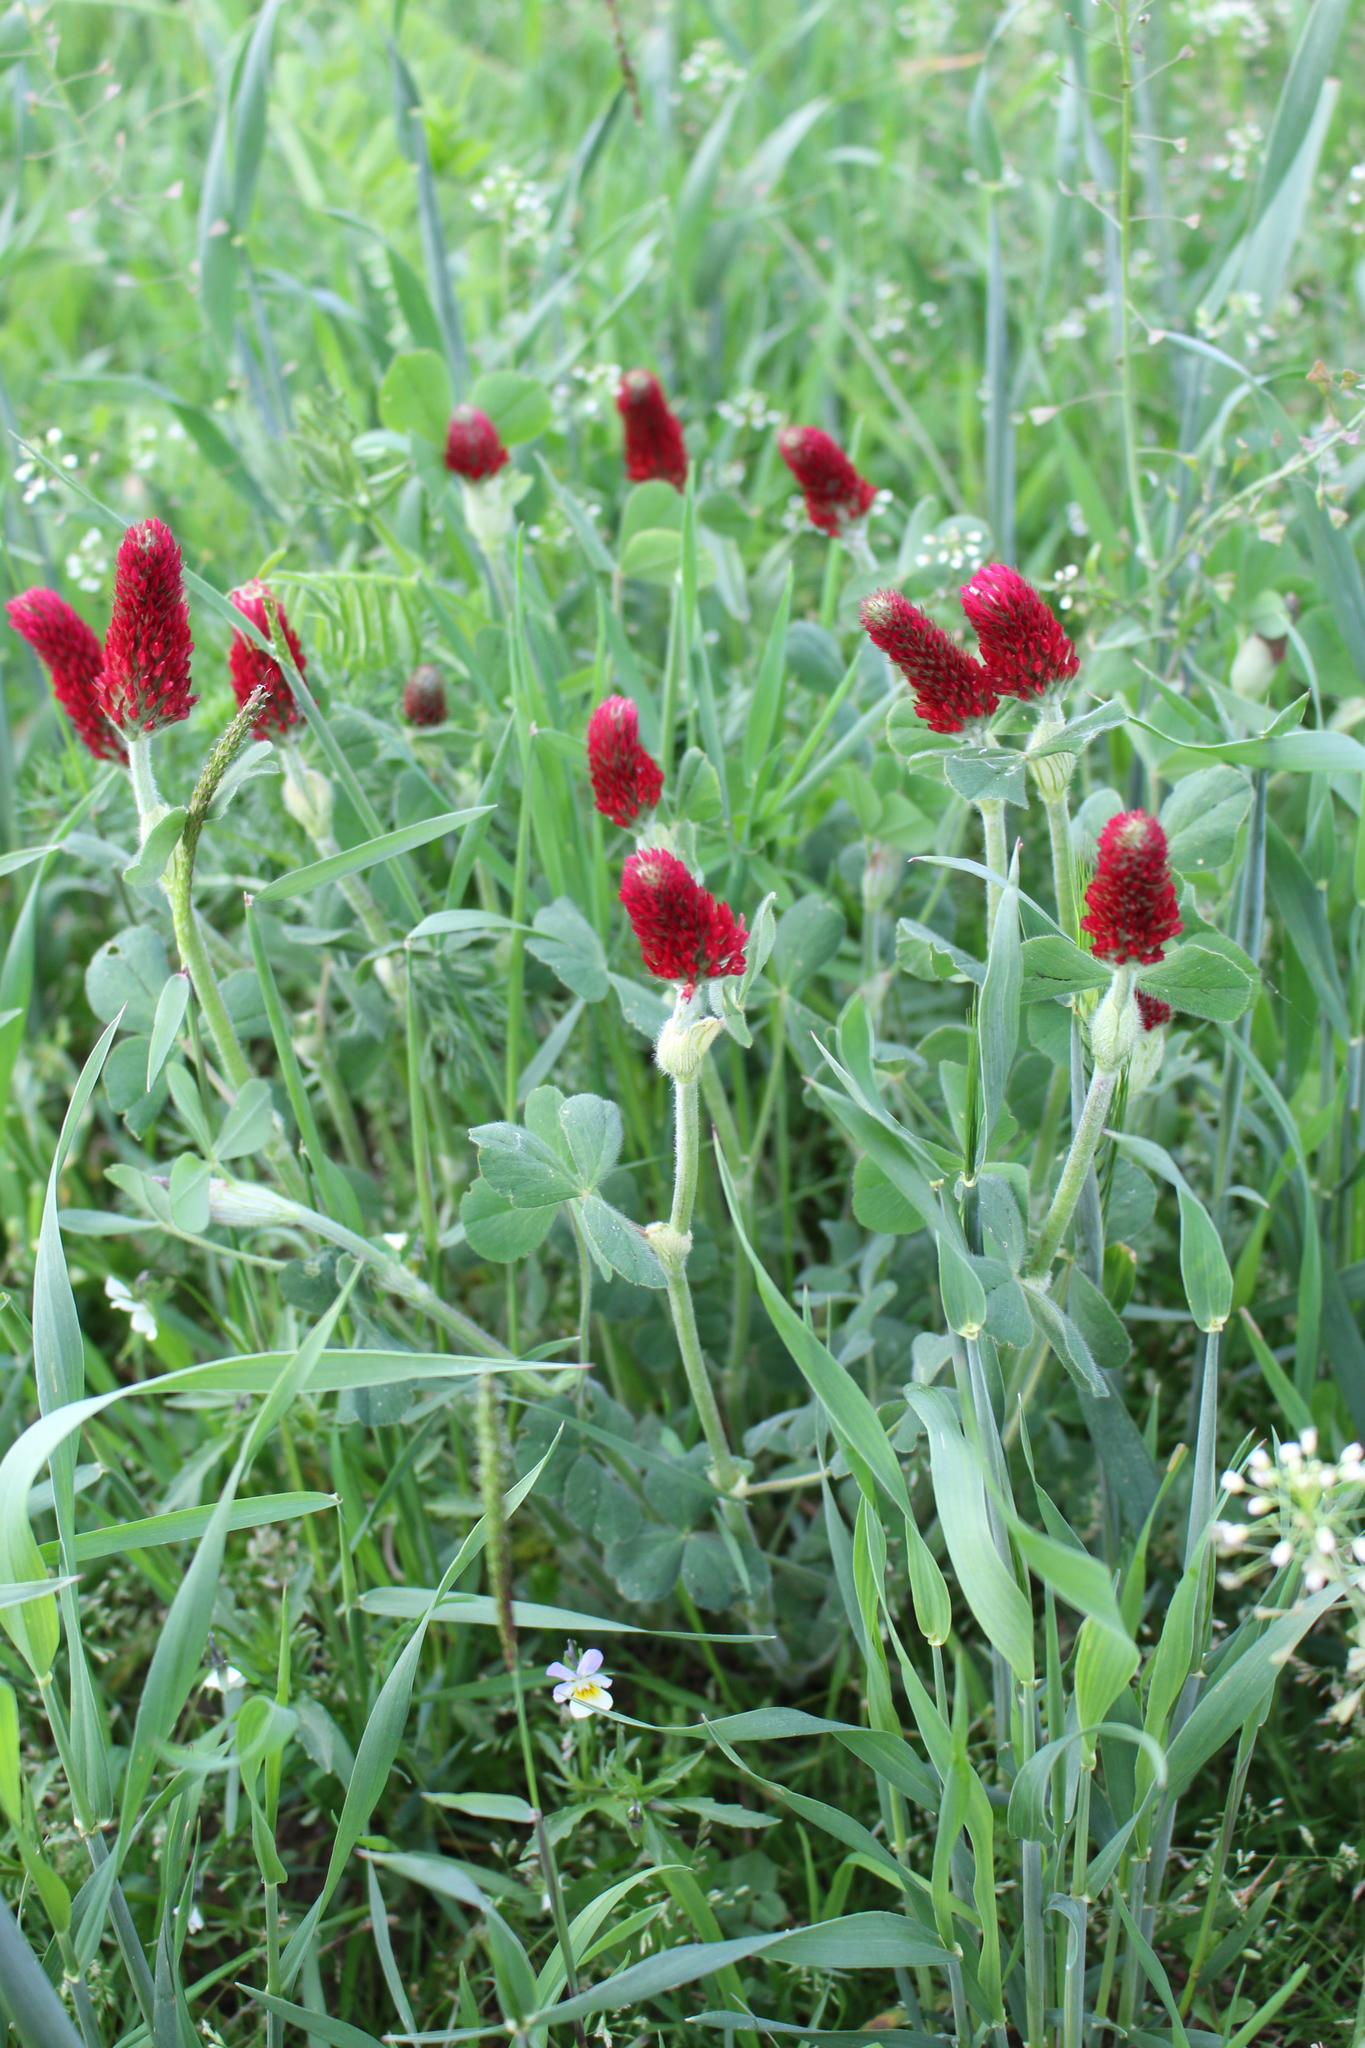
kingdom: Plantae
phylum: Tracheophyta
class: Magnoliopsida
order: Fabales
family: Fabaceae
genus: Trifolium
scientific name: Trifolium incarnatum
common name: Crimson clover
